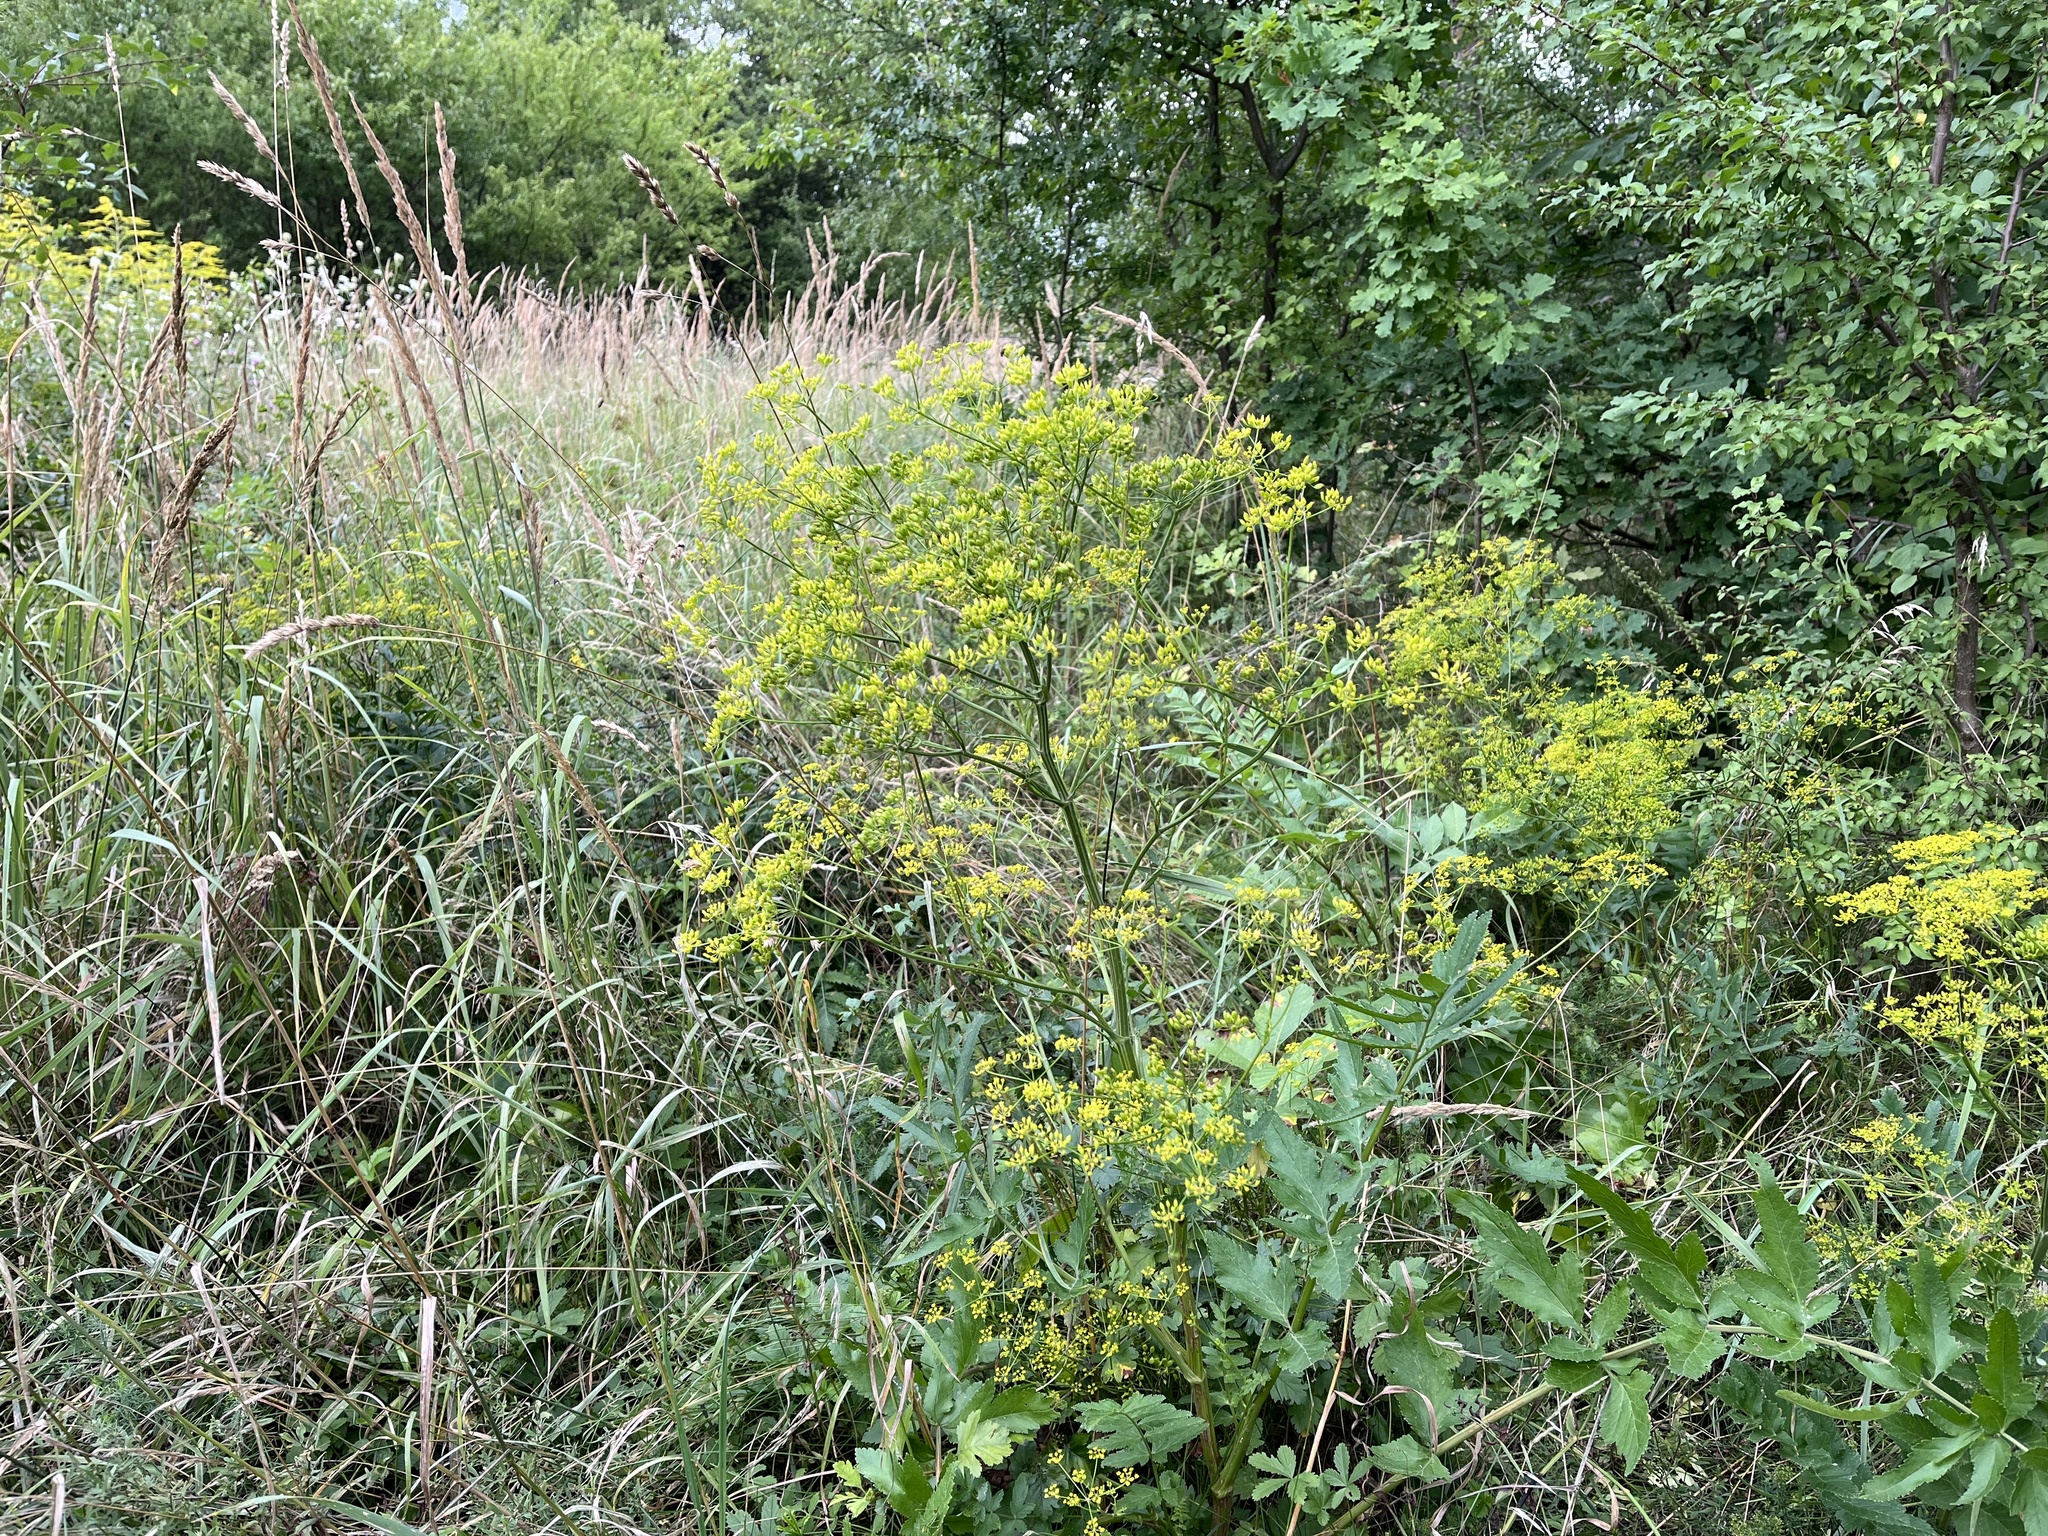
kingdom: Plantae
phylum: Tracheophyta
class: Magnoliopsida
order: Apiales
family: Apiaceae
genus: Pastinaca
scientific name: Pastinaca sativa
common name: Wild parsnip
